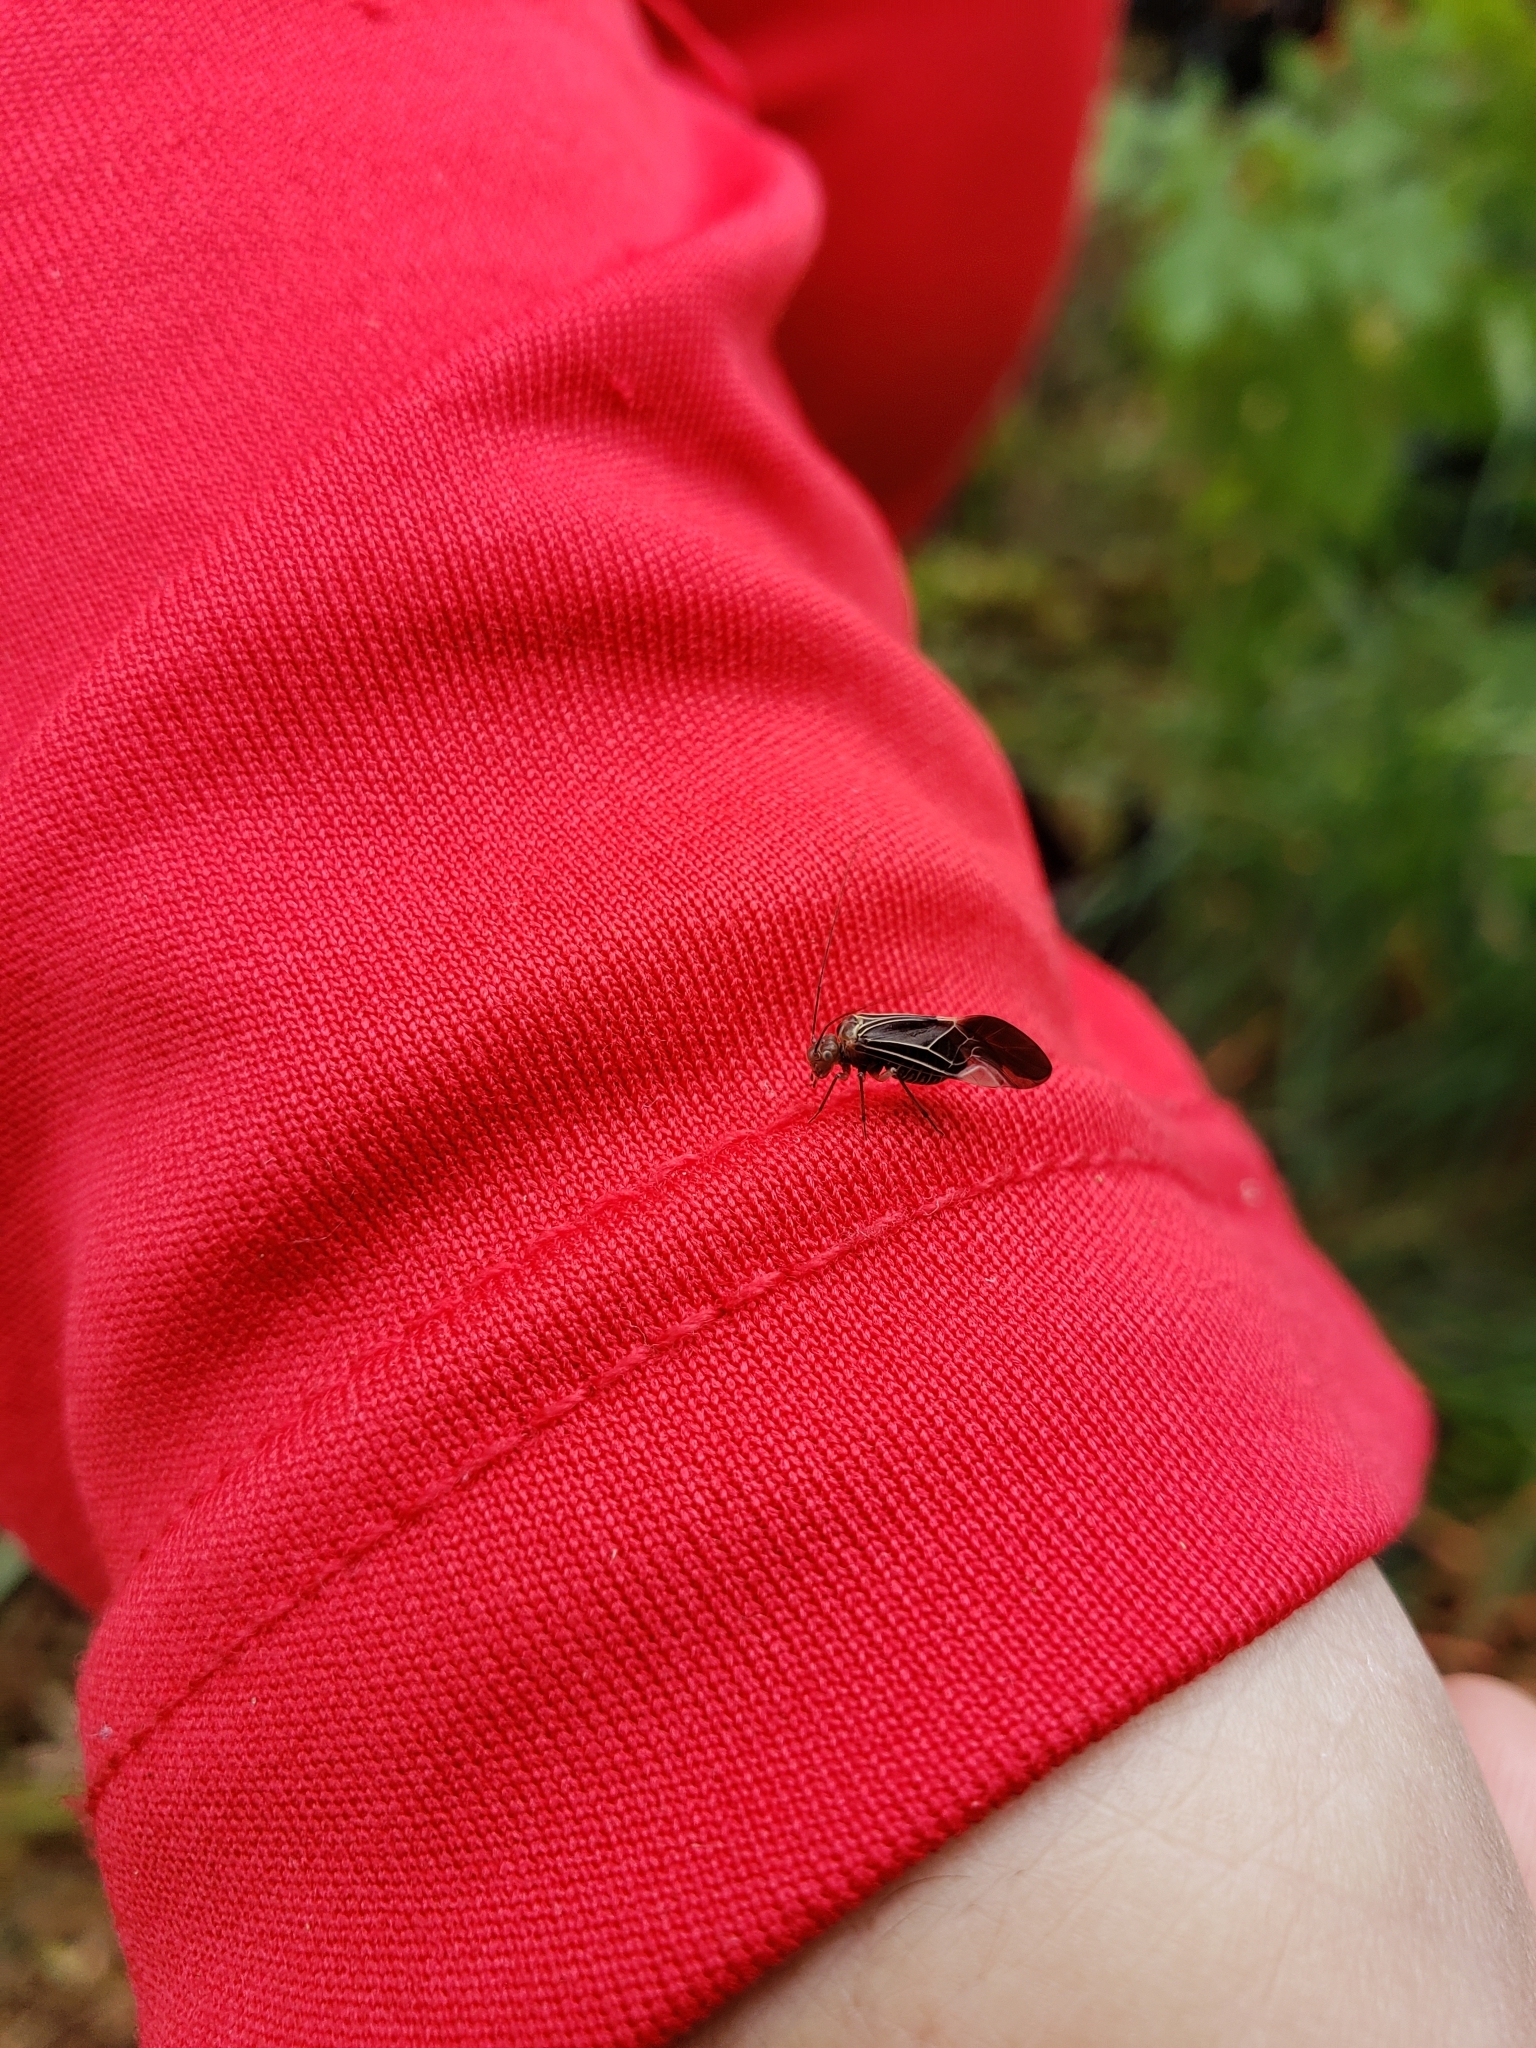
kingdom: Animalia
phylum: Arthropoda
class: Insecta
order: Psocodea
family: Psocidae
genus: Cerastipsocus
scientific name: Cerastipsocus venosus
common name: Tree cattle
